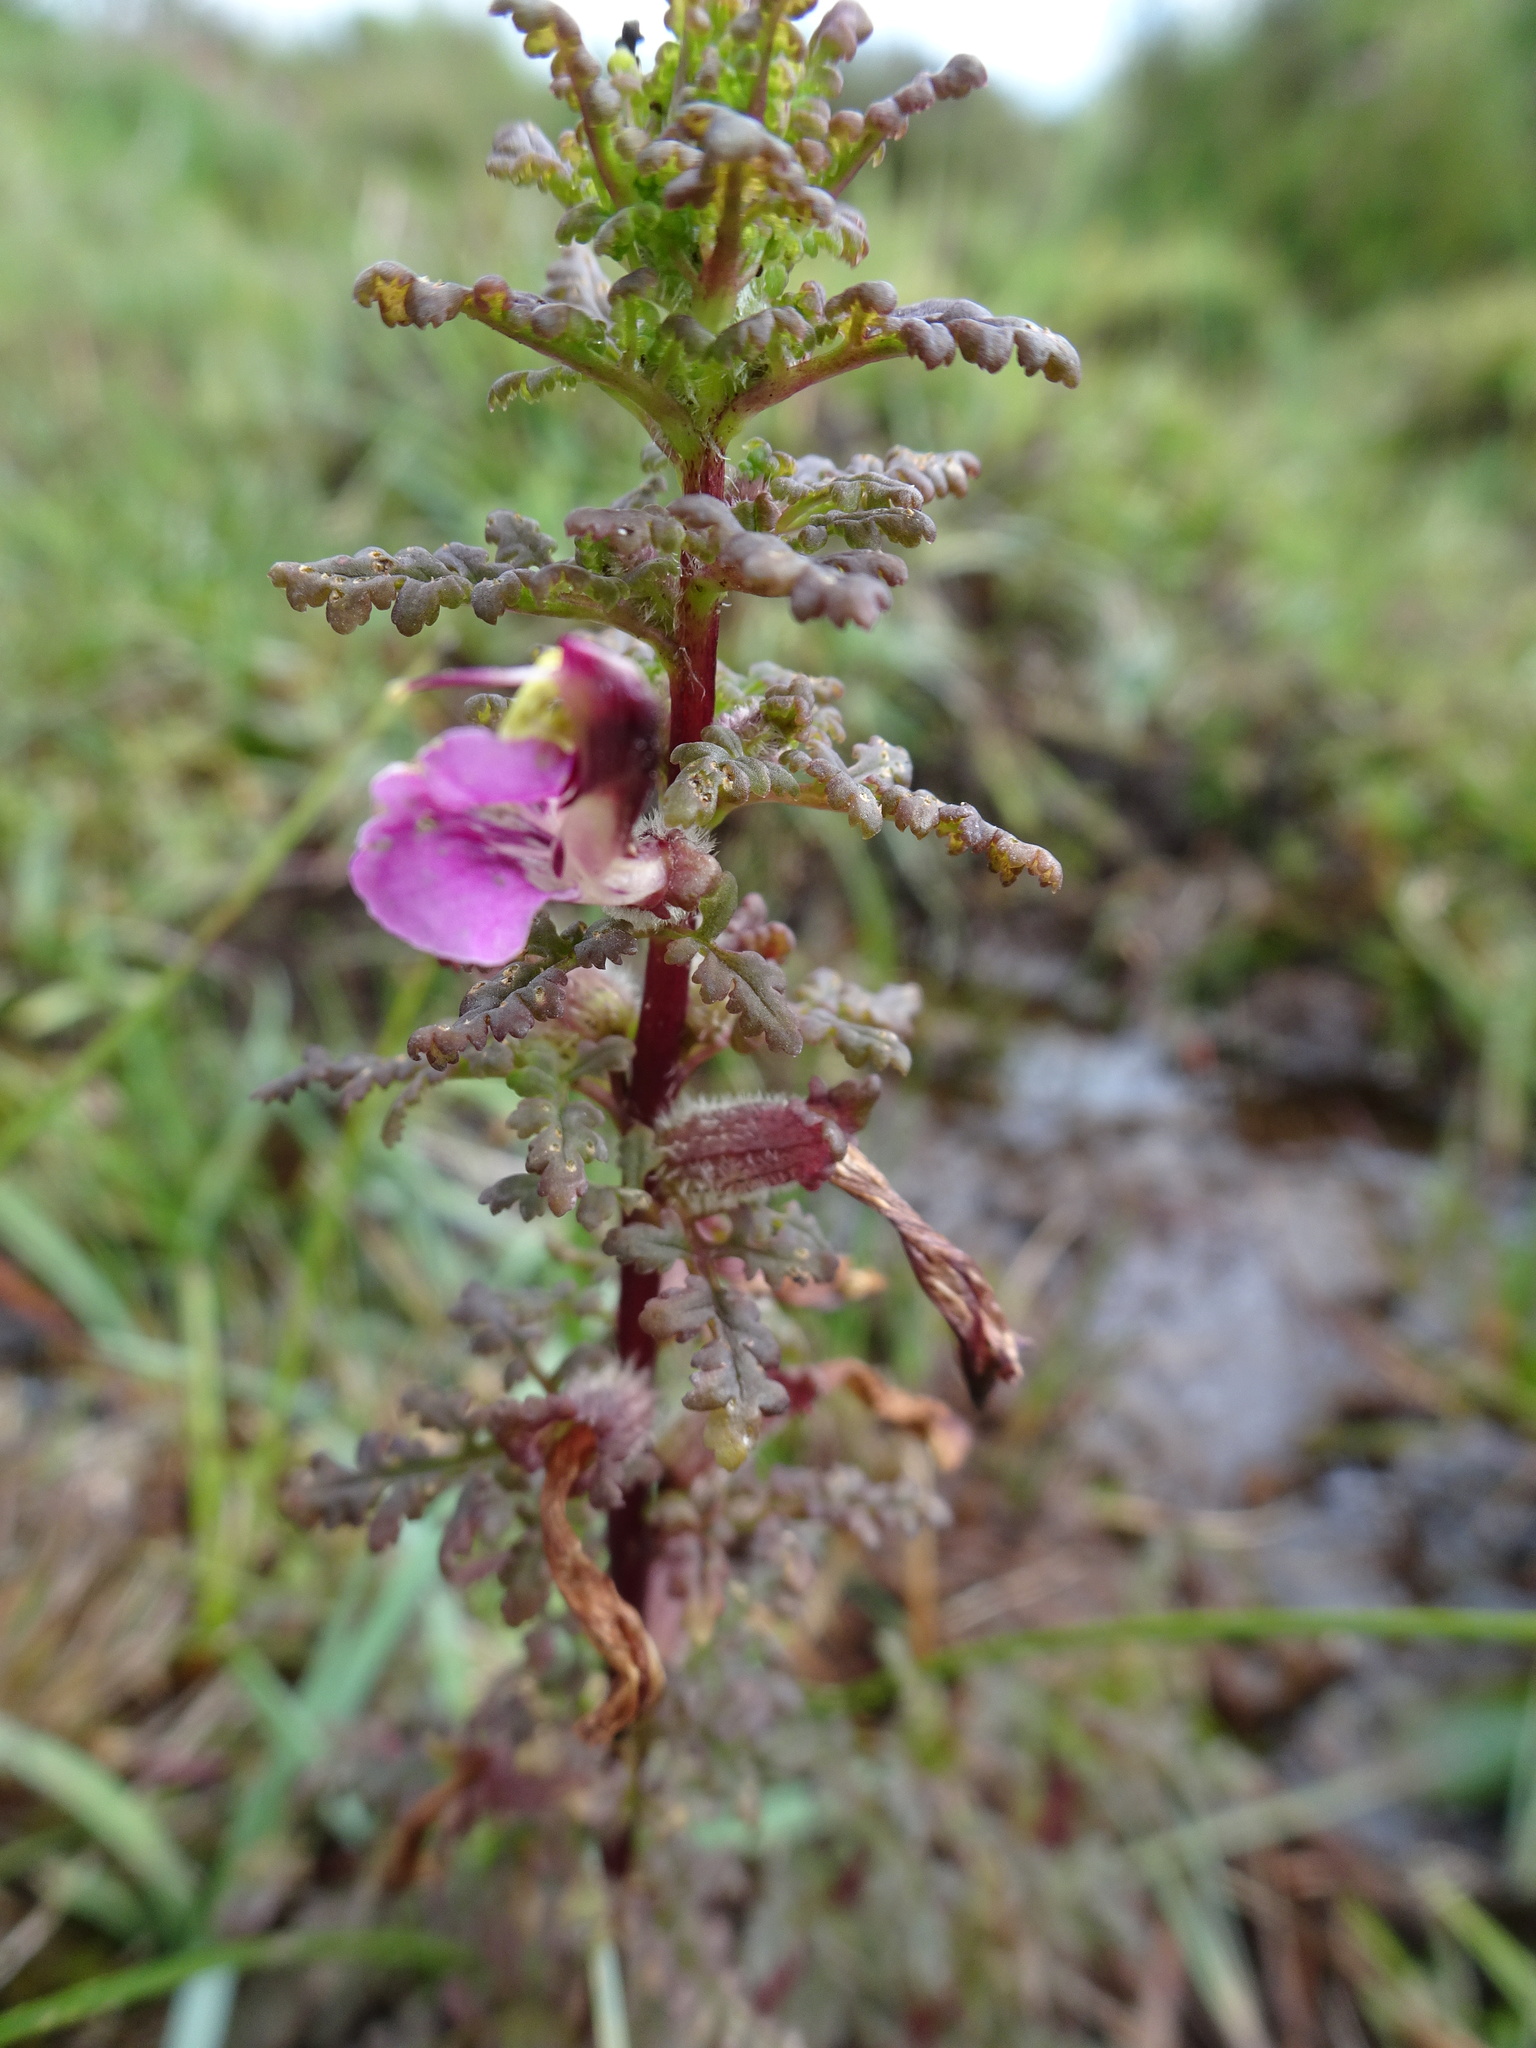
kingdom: Plantae
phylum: Tracheophyta
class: Magnoliopsida
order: Lamiales
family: Orobanchaceae
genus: Pedicularis
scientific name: Pedicularis palustris
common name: Marsh lousewort
